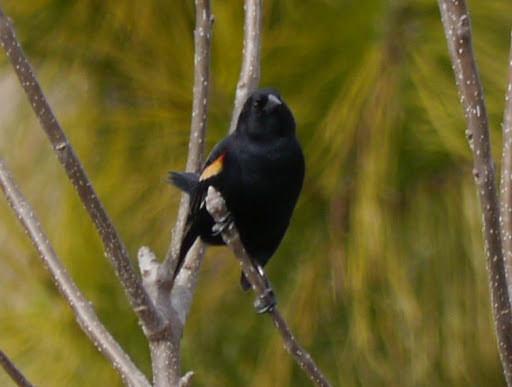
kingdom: Animalia
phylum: Chordata
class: Aves
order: Passeriformes
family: Icteridae
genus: Agelaius
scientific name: Agelaius phoeniceus
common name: Red-winged blackbird
